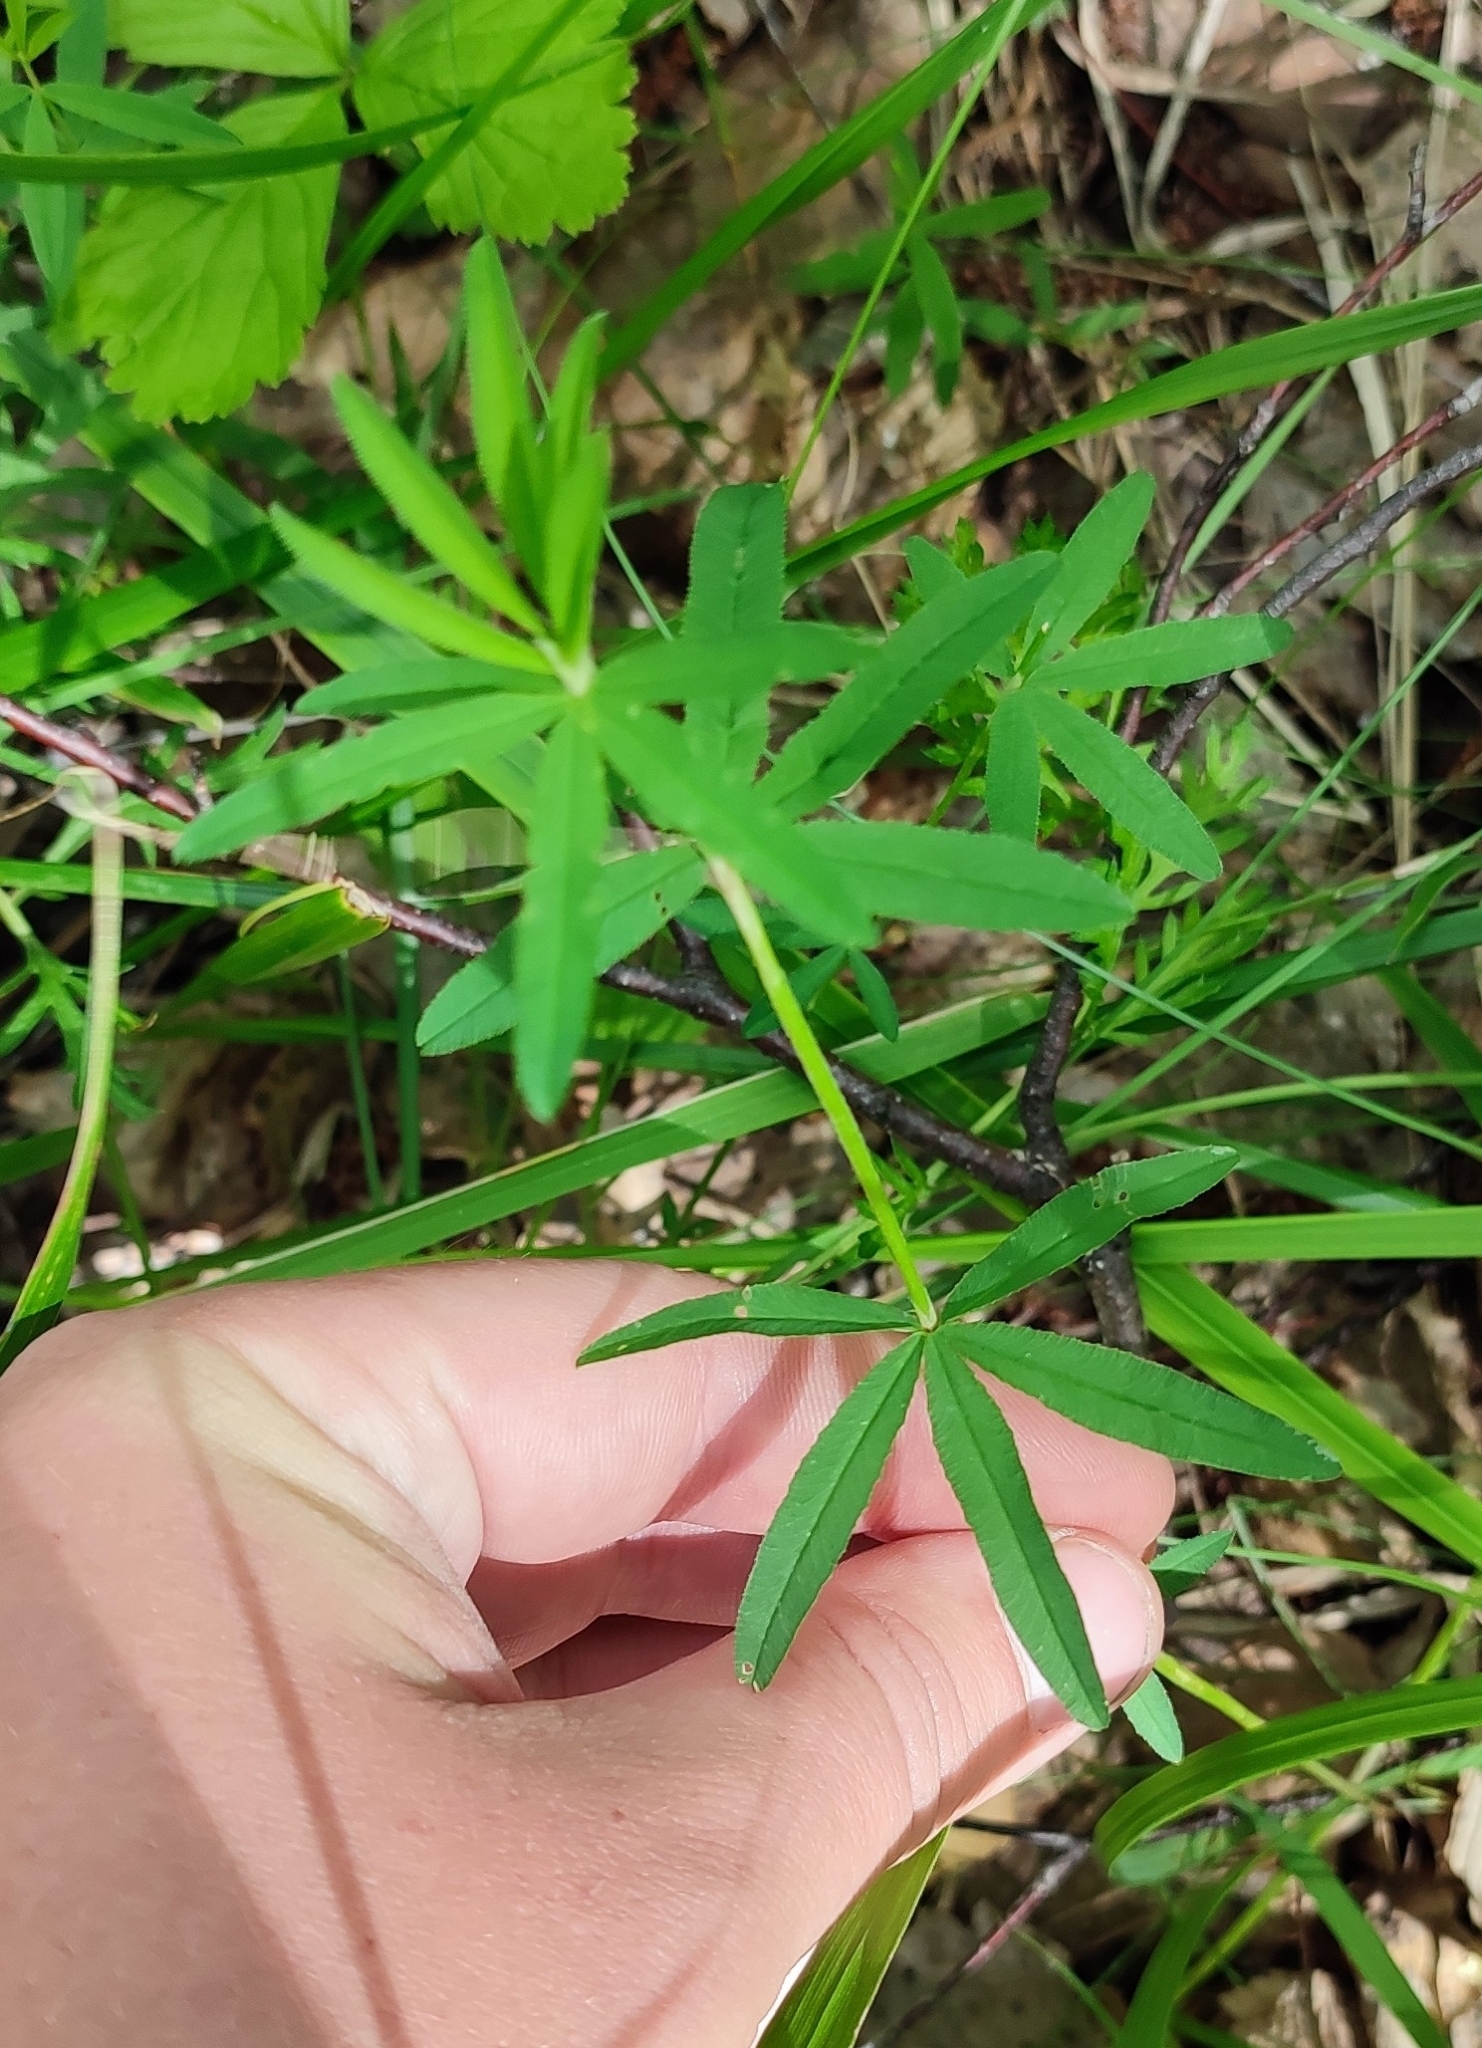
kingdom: Plantae
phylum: Tracheophyta
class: Magnoliopsida
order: Fabales
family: Fabaceae
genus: Trifolium
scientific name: Trifolium lupinaster
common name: Lupine clover
